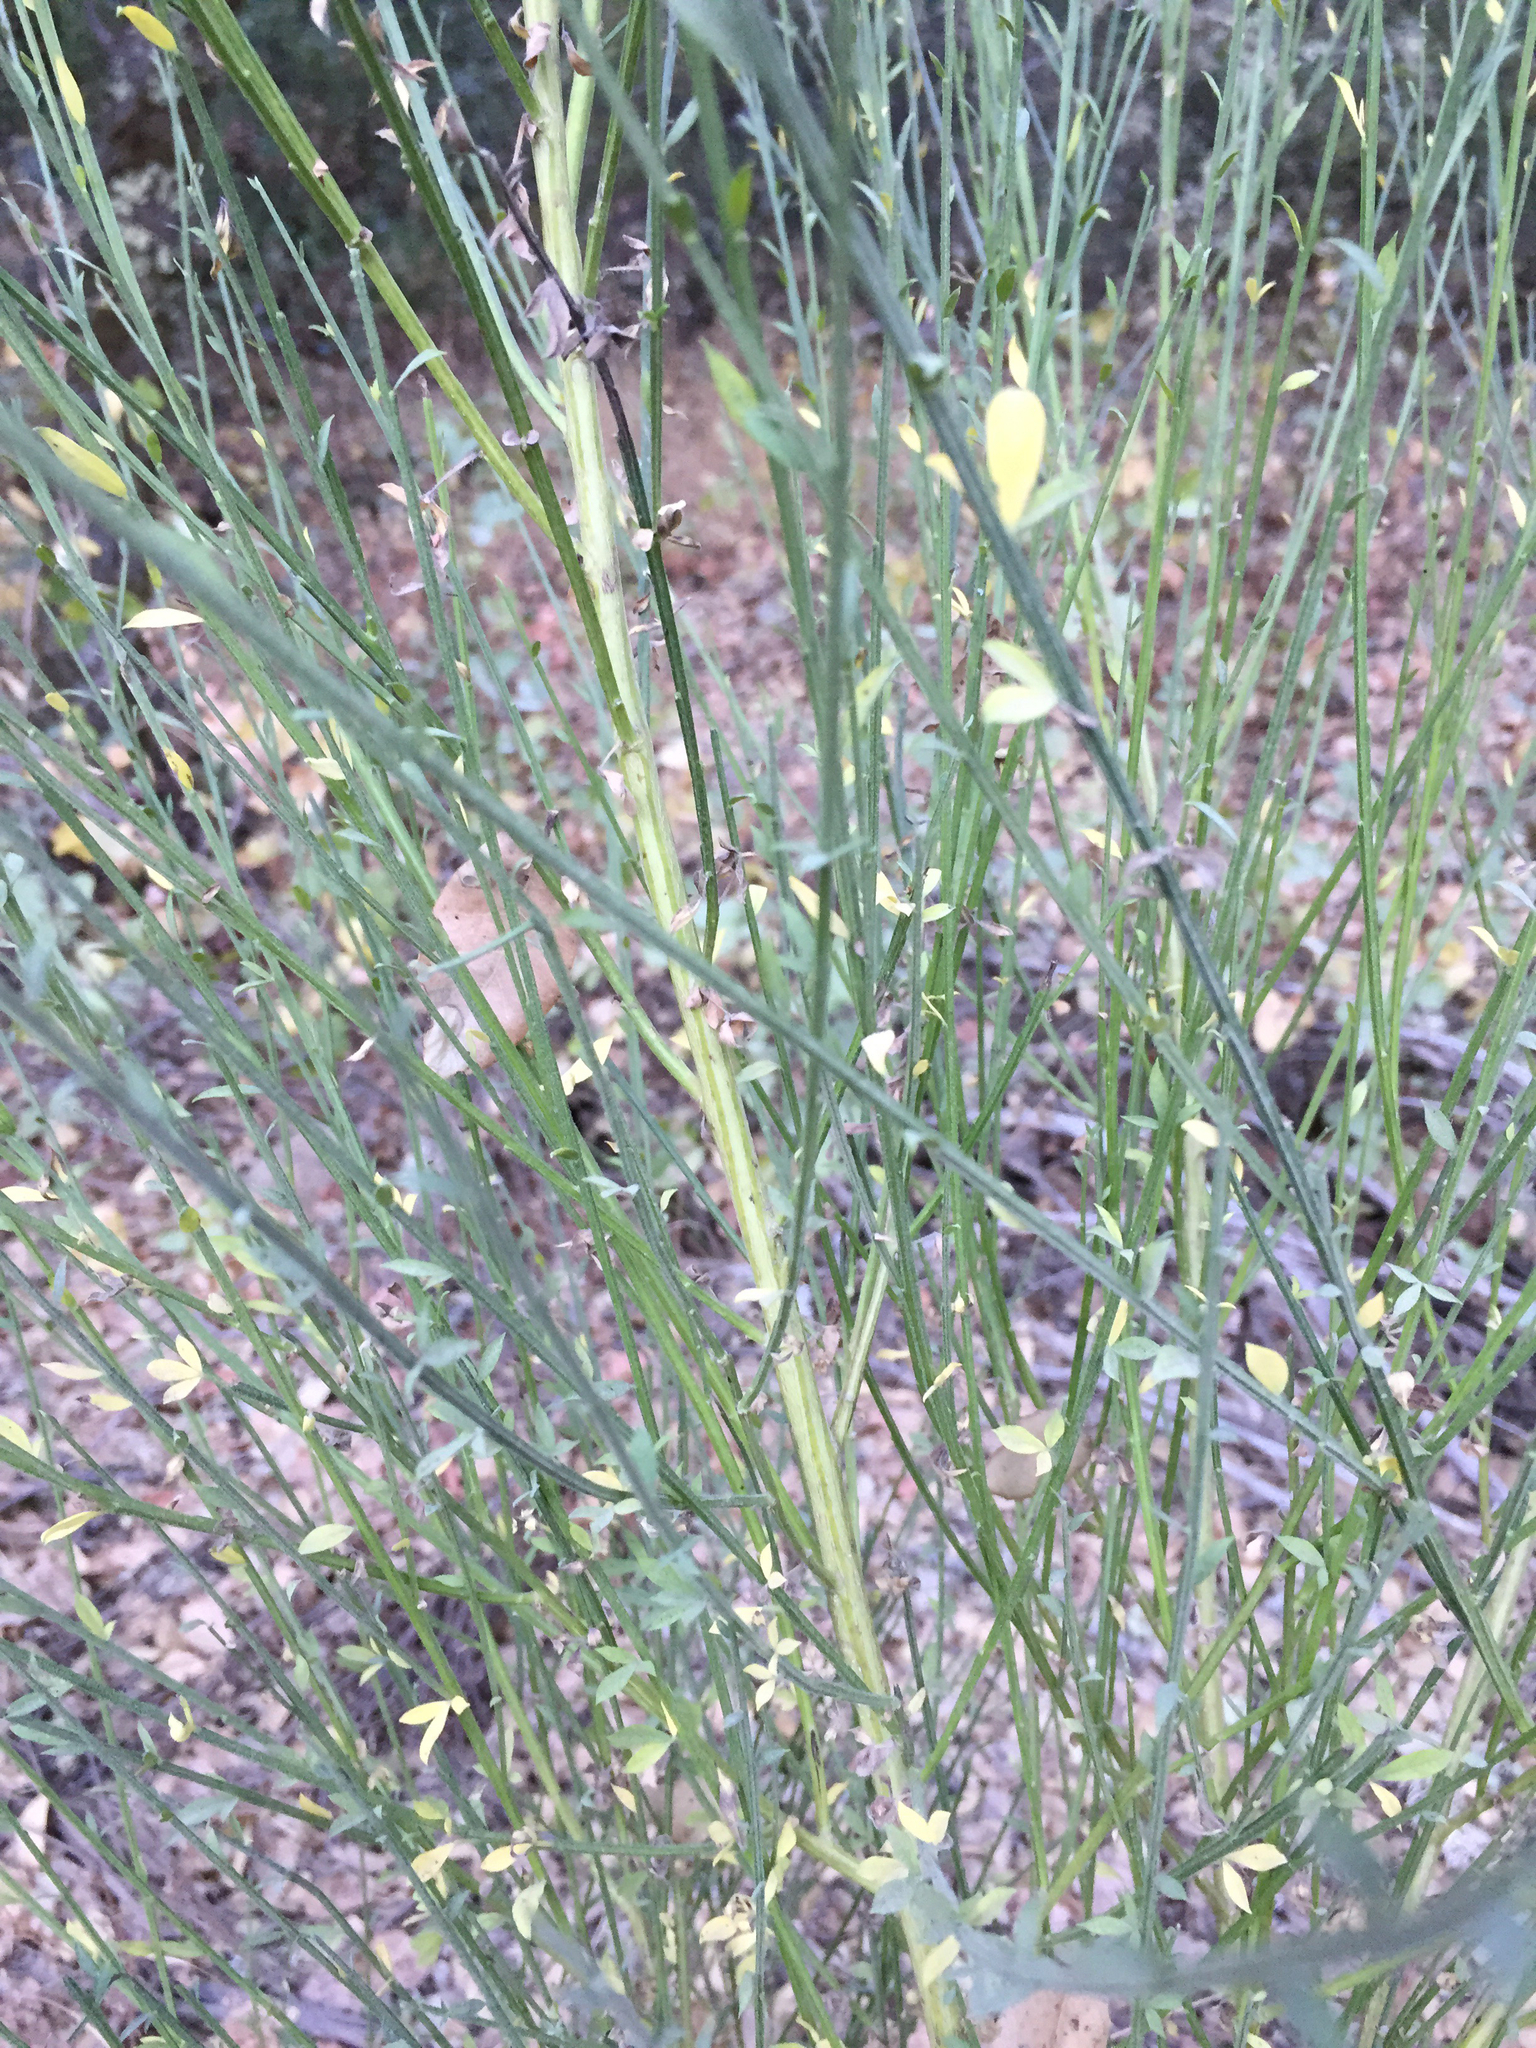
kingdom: Plantae
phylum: Tracheophyta
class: Magnoliopsida
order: Fabales
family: Fabaceae
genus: Cytisus
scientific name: Cytisus scoparius
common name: Scotch broom
